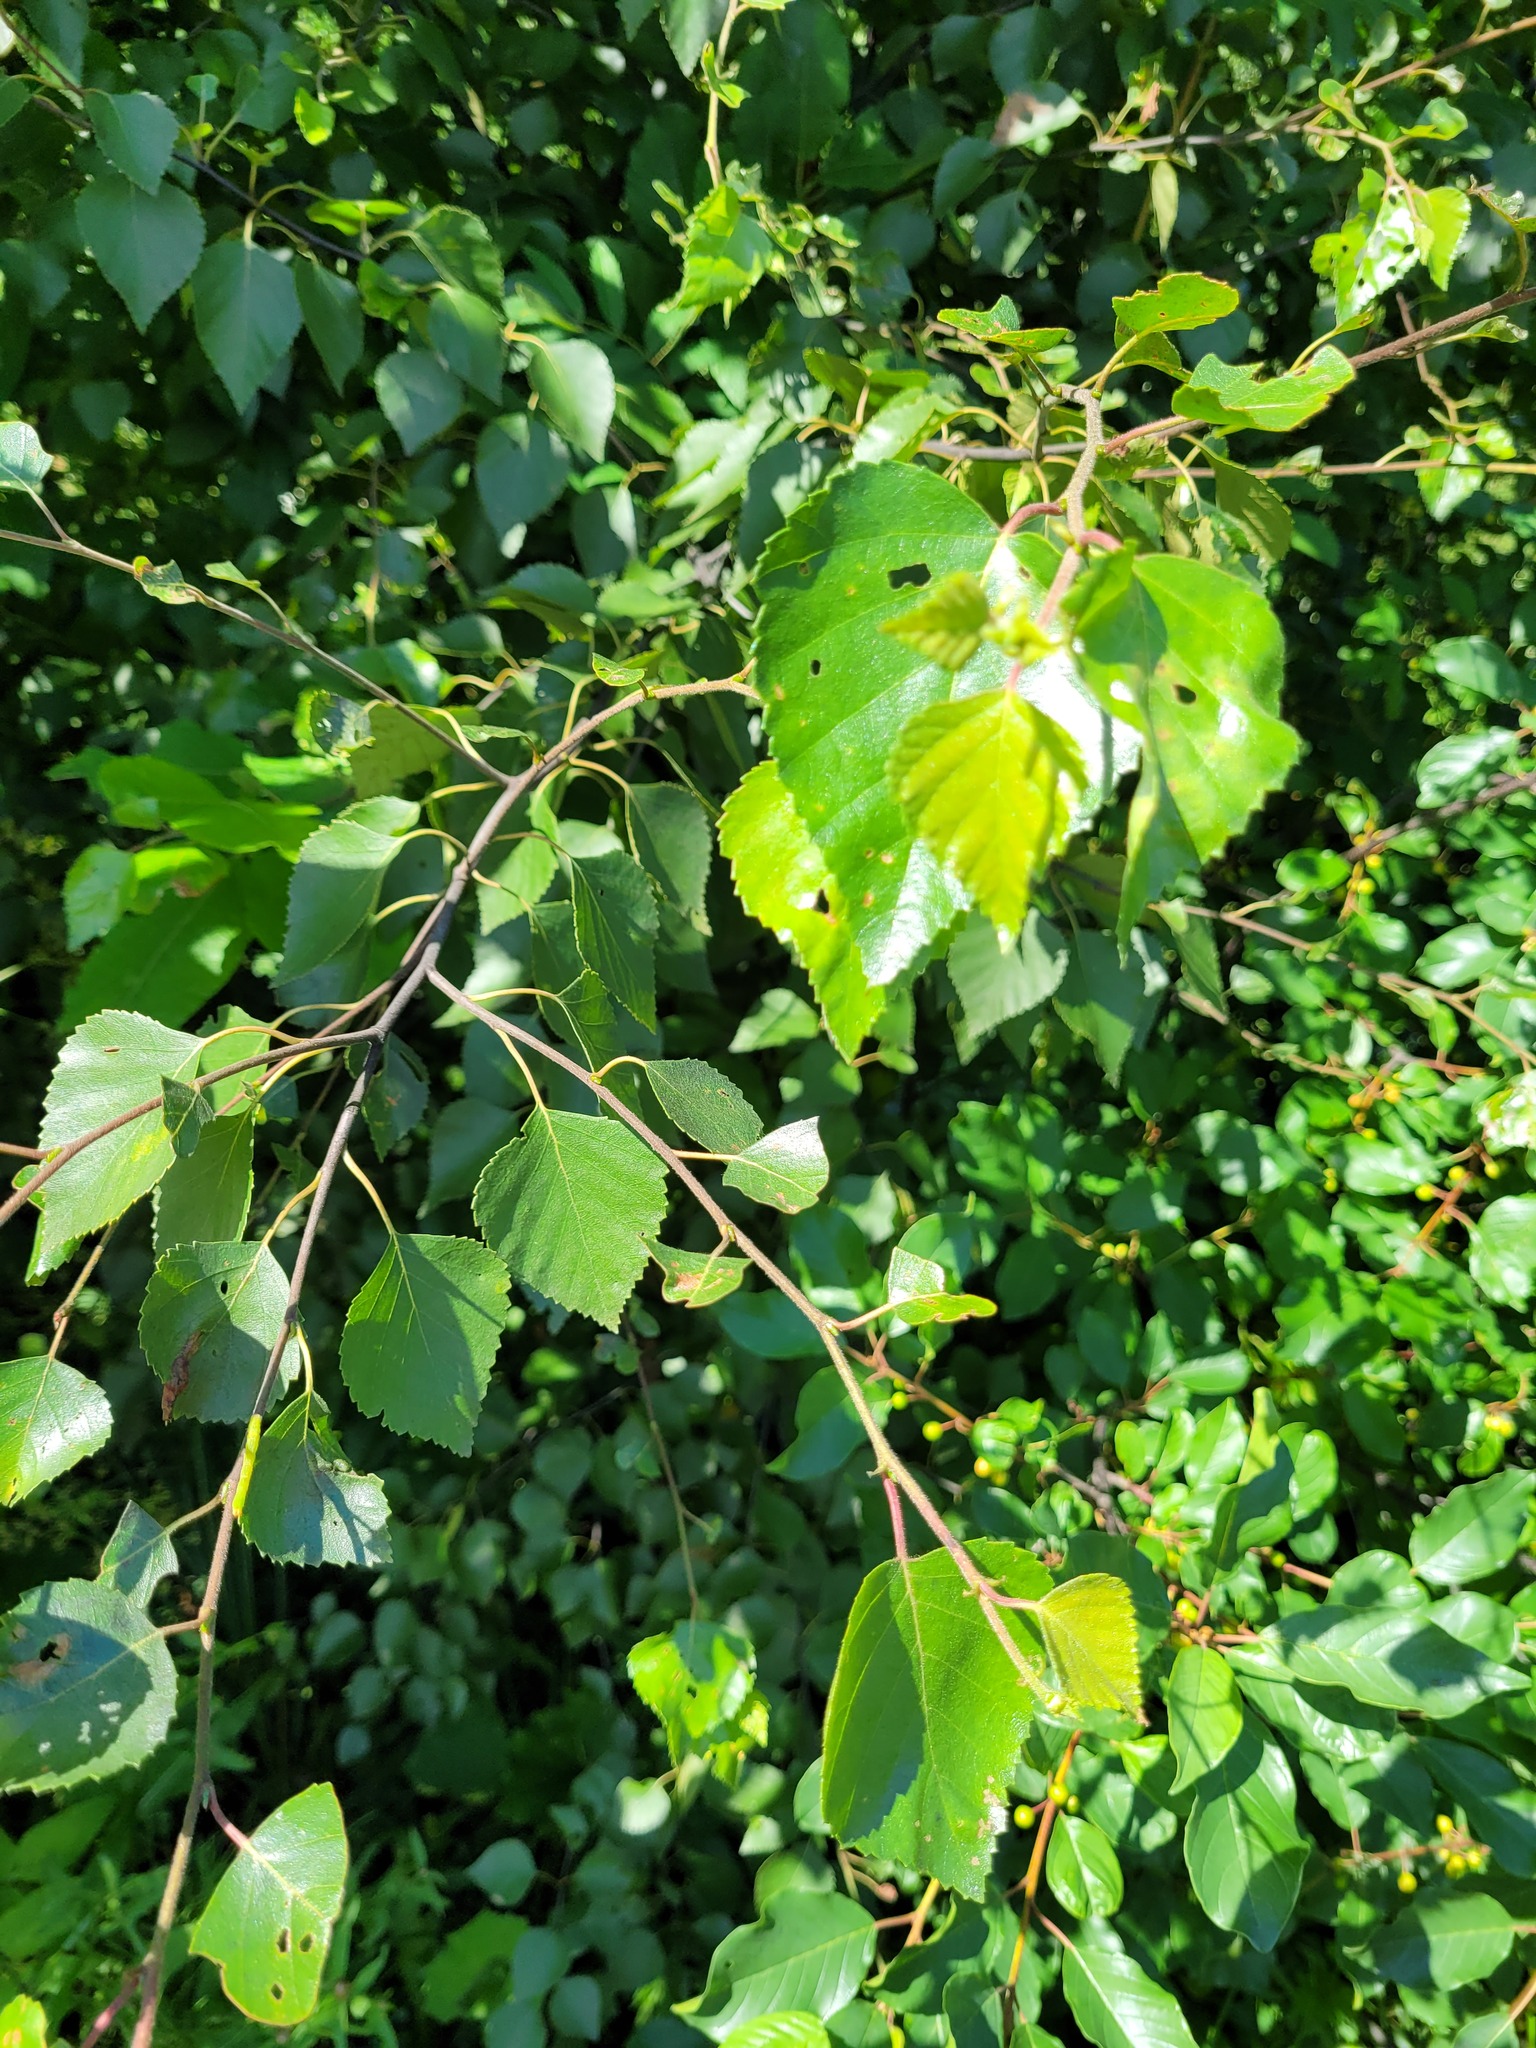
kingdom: Plantae
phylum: Tracheophyta
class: Magnoliopsida
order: Fagales
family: Betulaceae
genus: Betula
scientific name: Betula pubescens
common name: Downy birch
